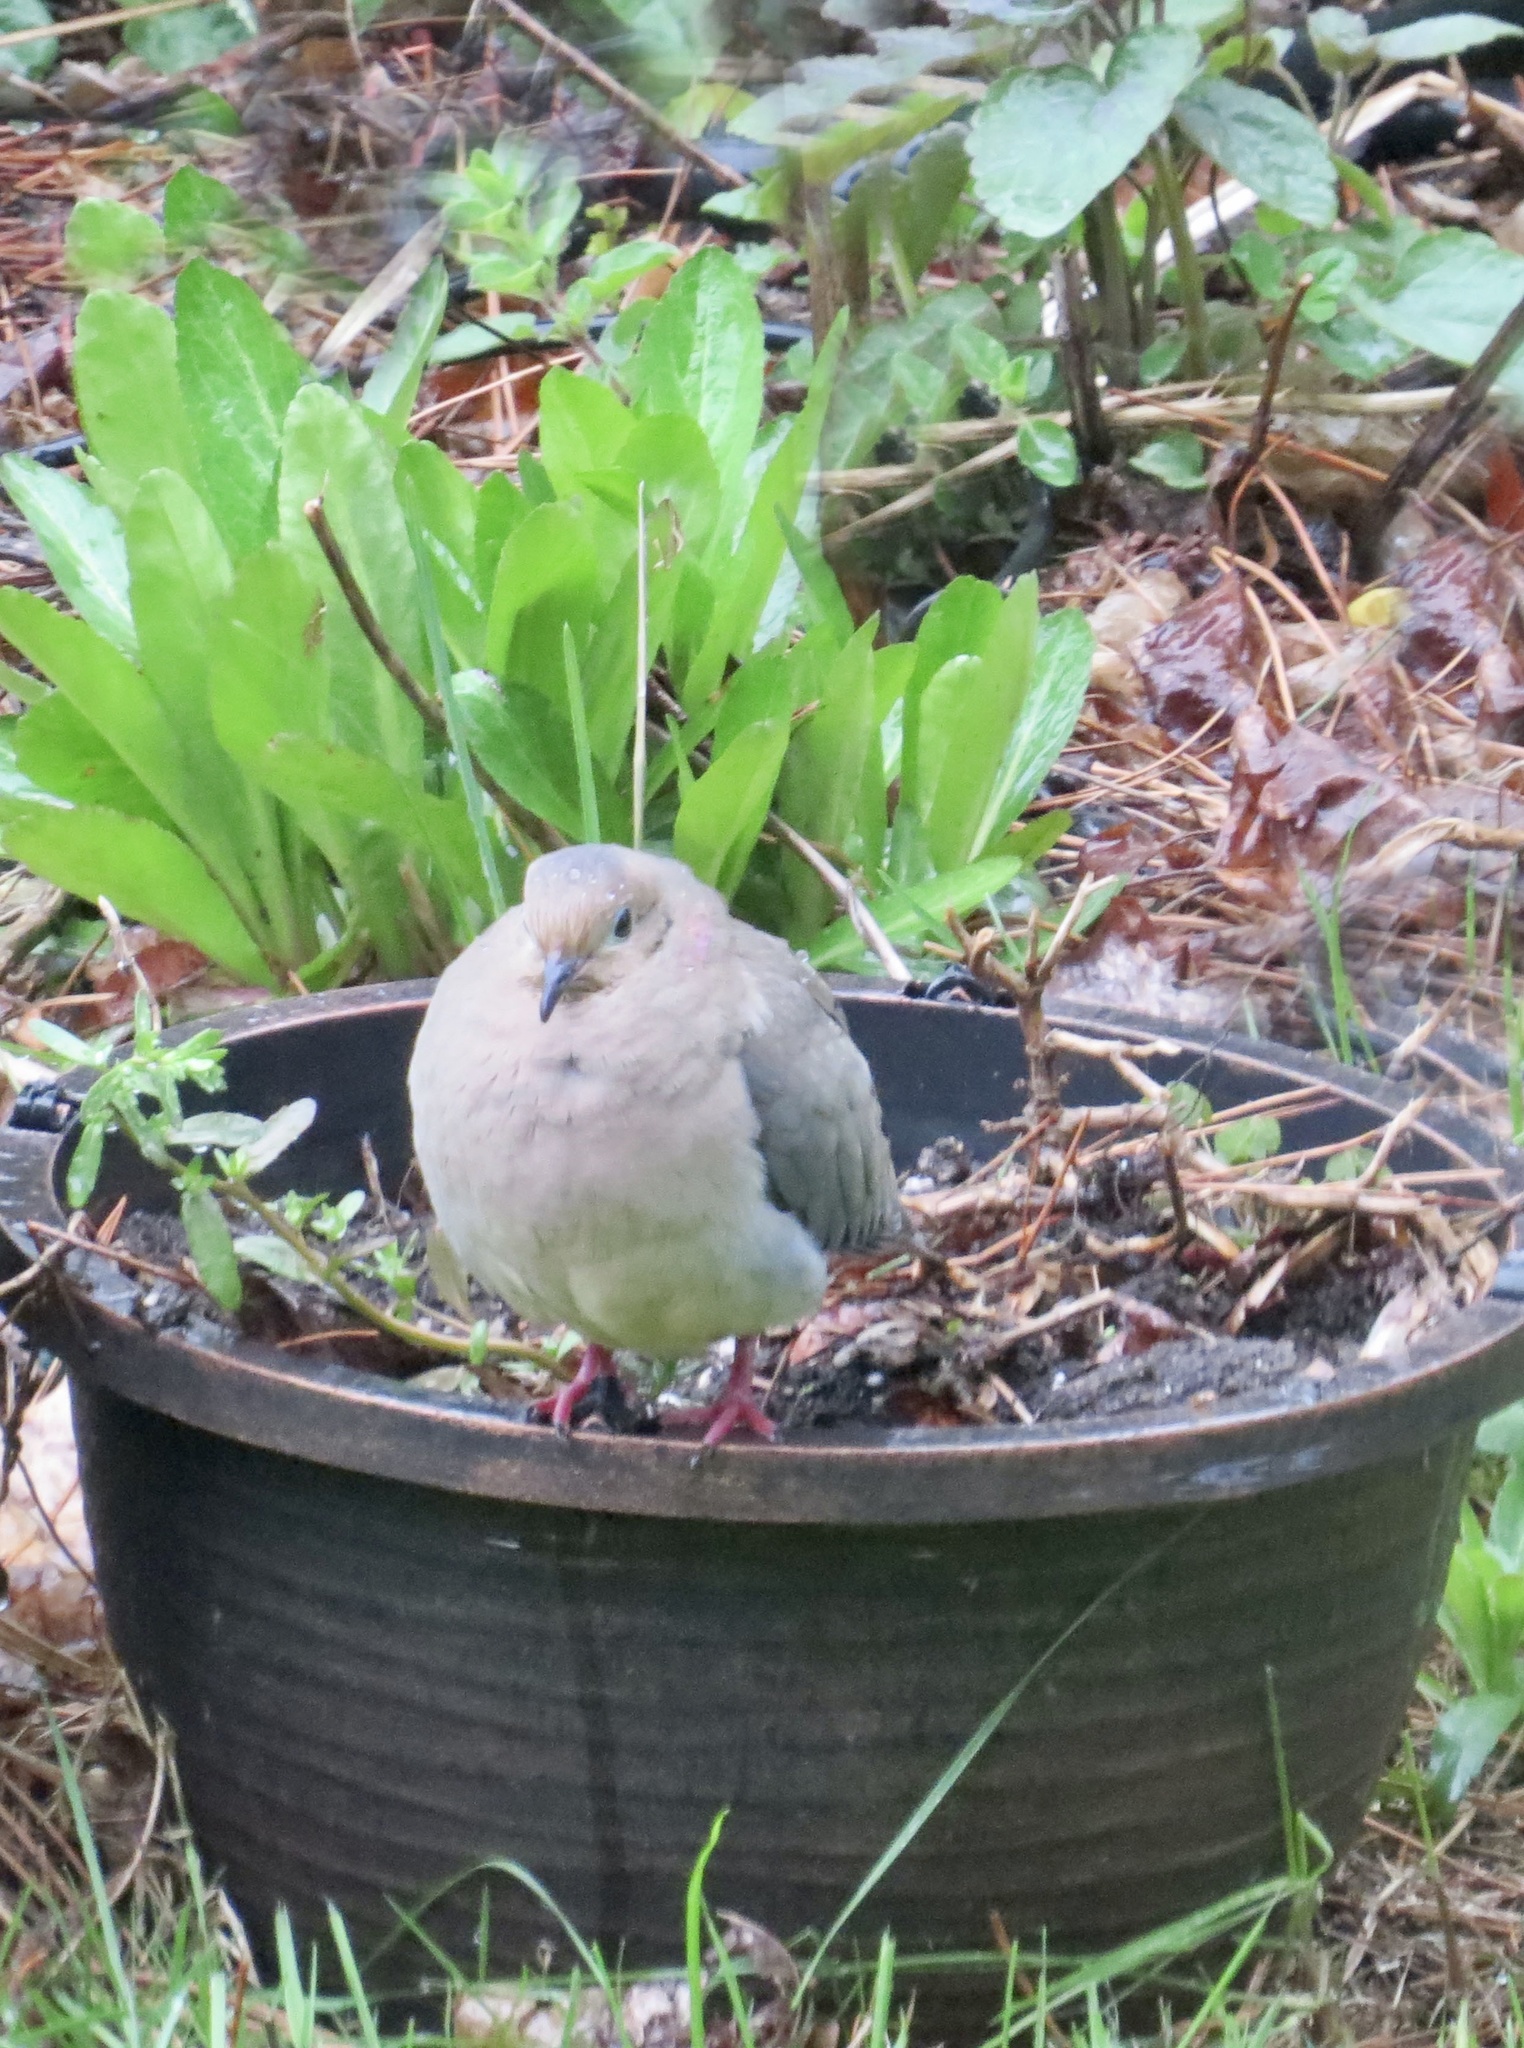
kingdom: Animalia
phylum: Chordata
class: Aves
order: Columbiformes
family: Columbidae
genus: Zenaida
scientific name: Zenaida macroura
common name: Mourning dove
